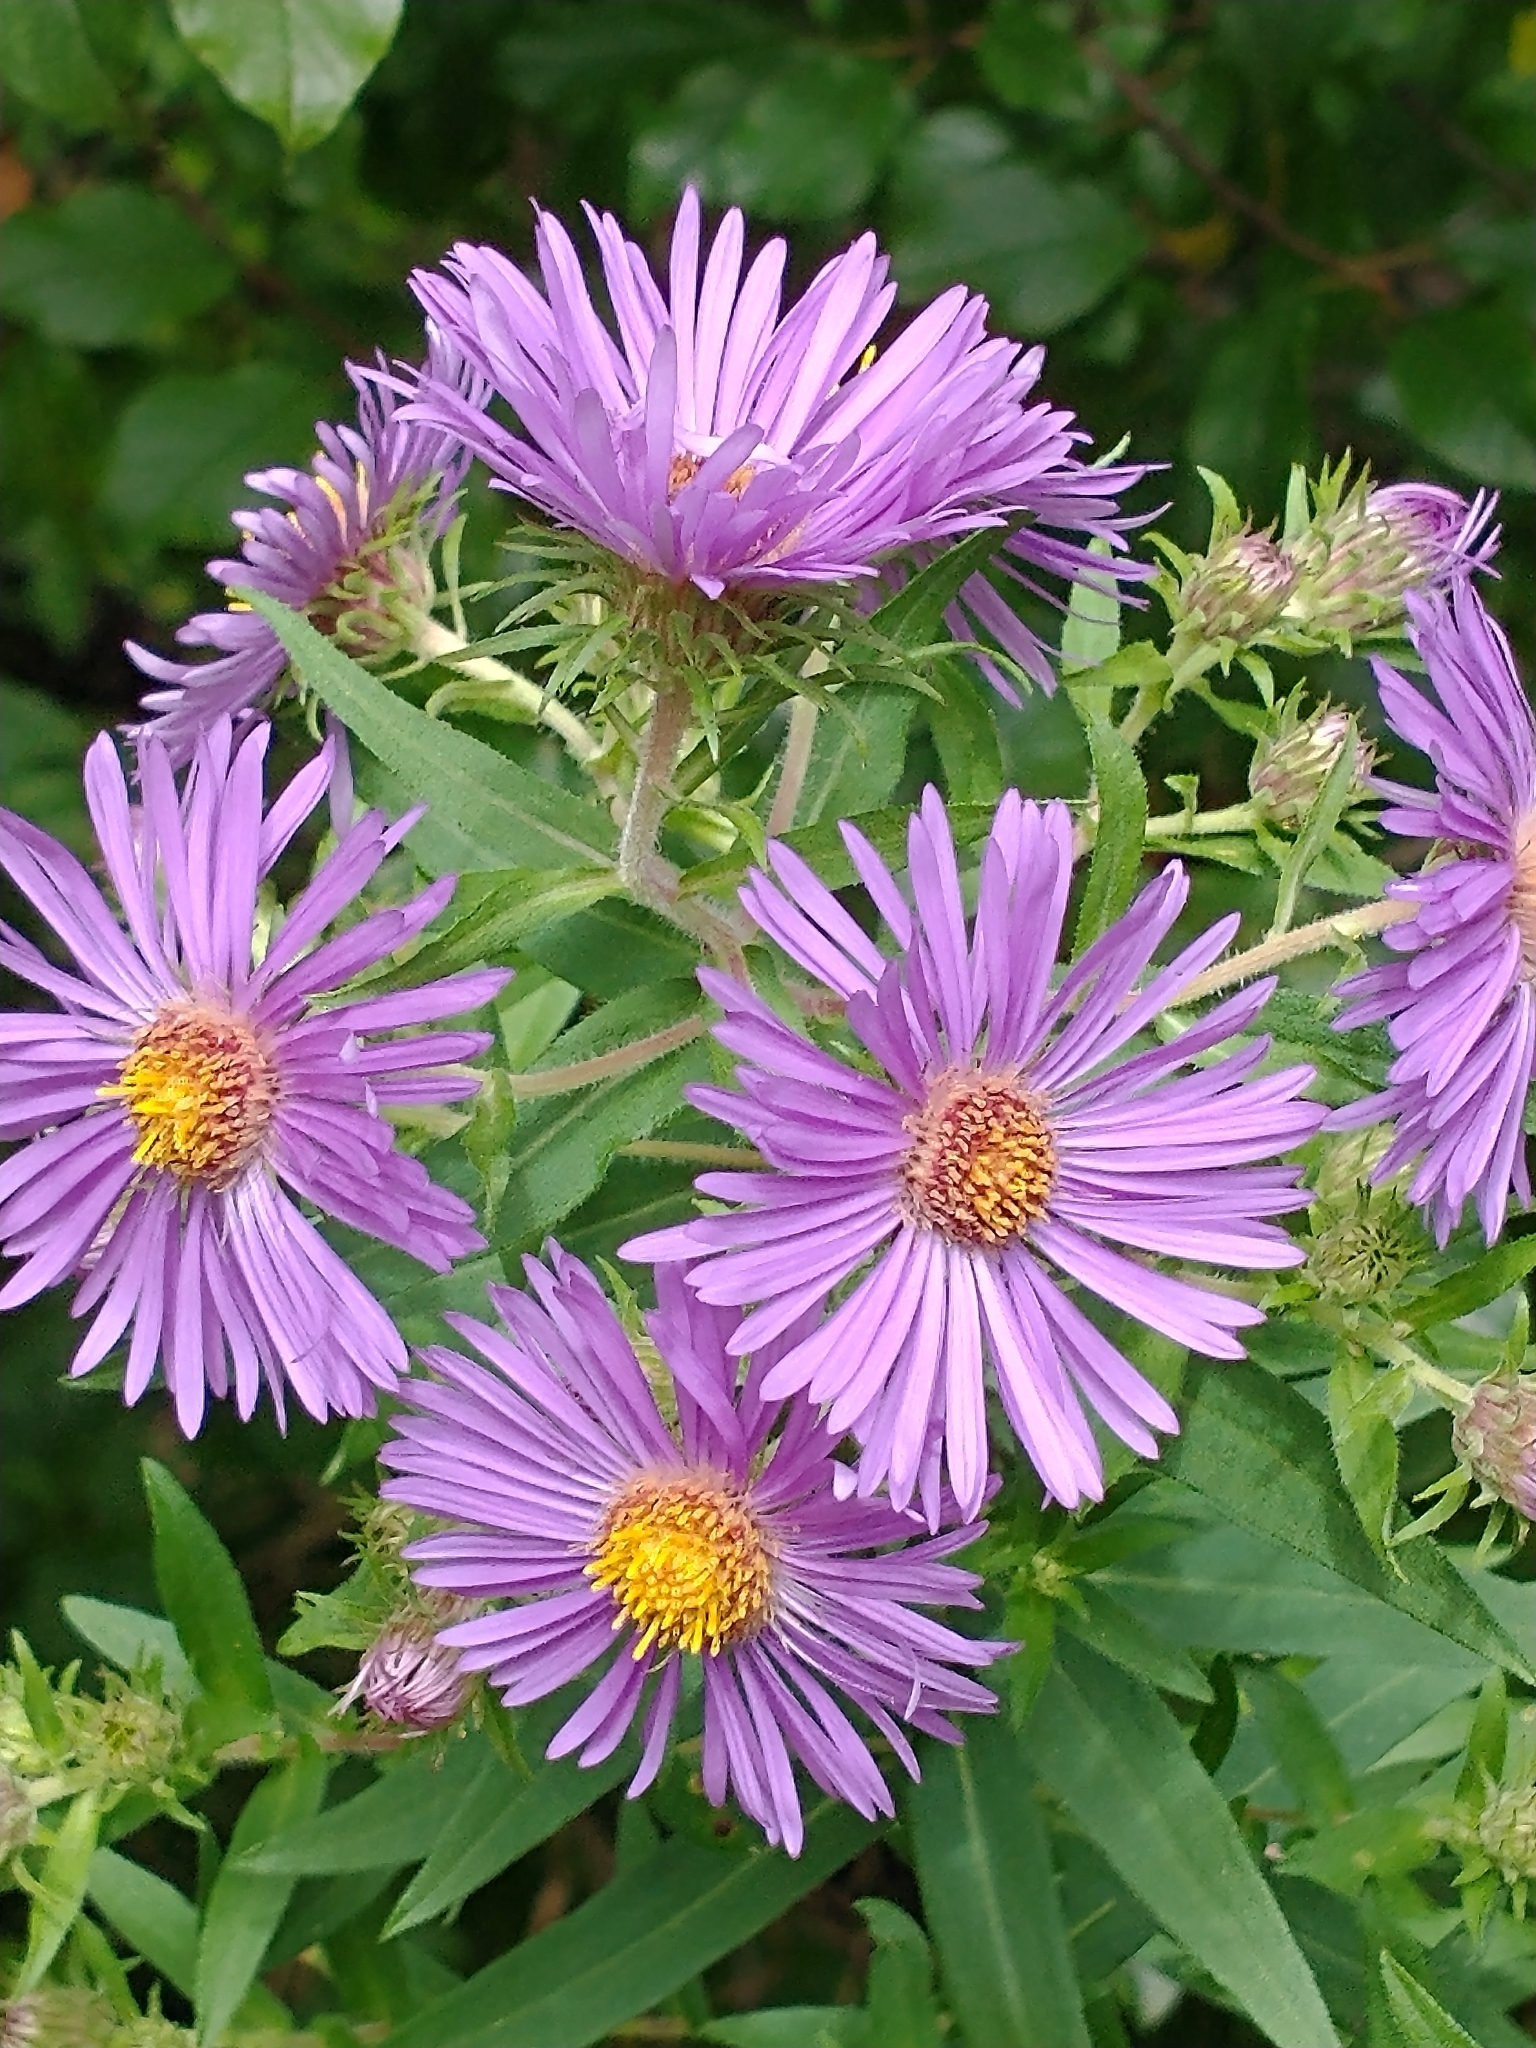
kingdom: Plantae
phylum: Tracheophyta
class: Magnoliopsida
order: Asterales
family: Asteraceae
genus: Symphyotrichum
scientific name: Symphyotrichum novae-angliae
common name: Michaelmas daisy
